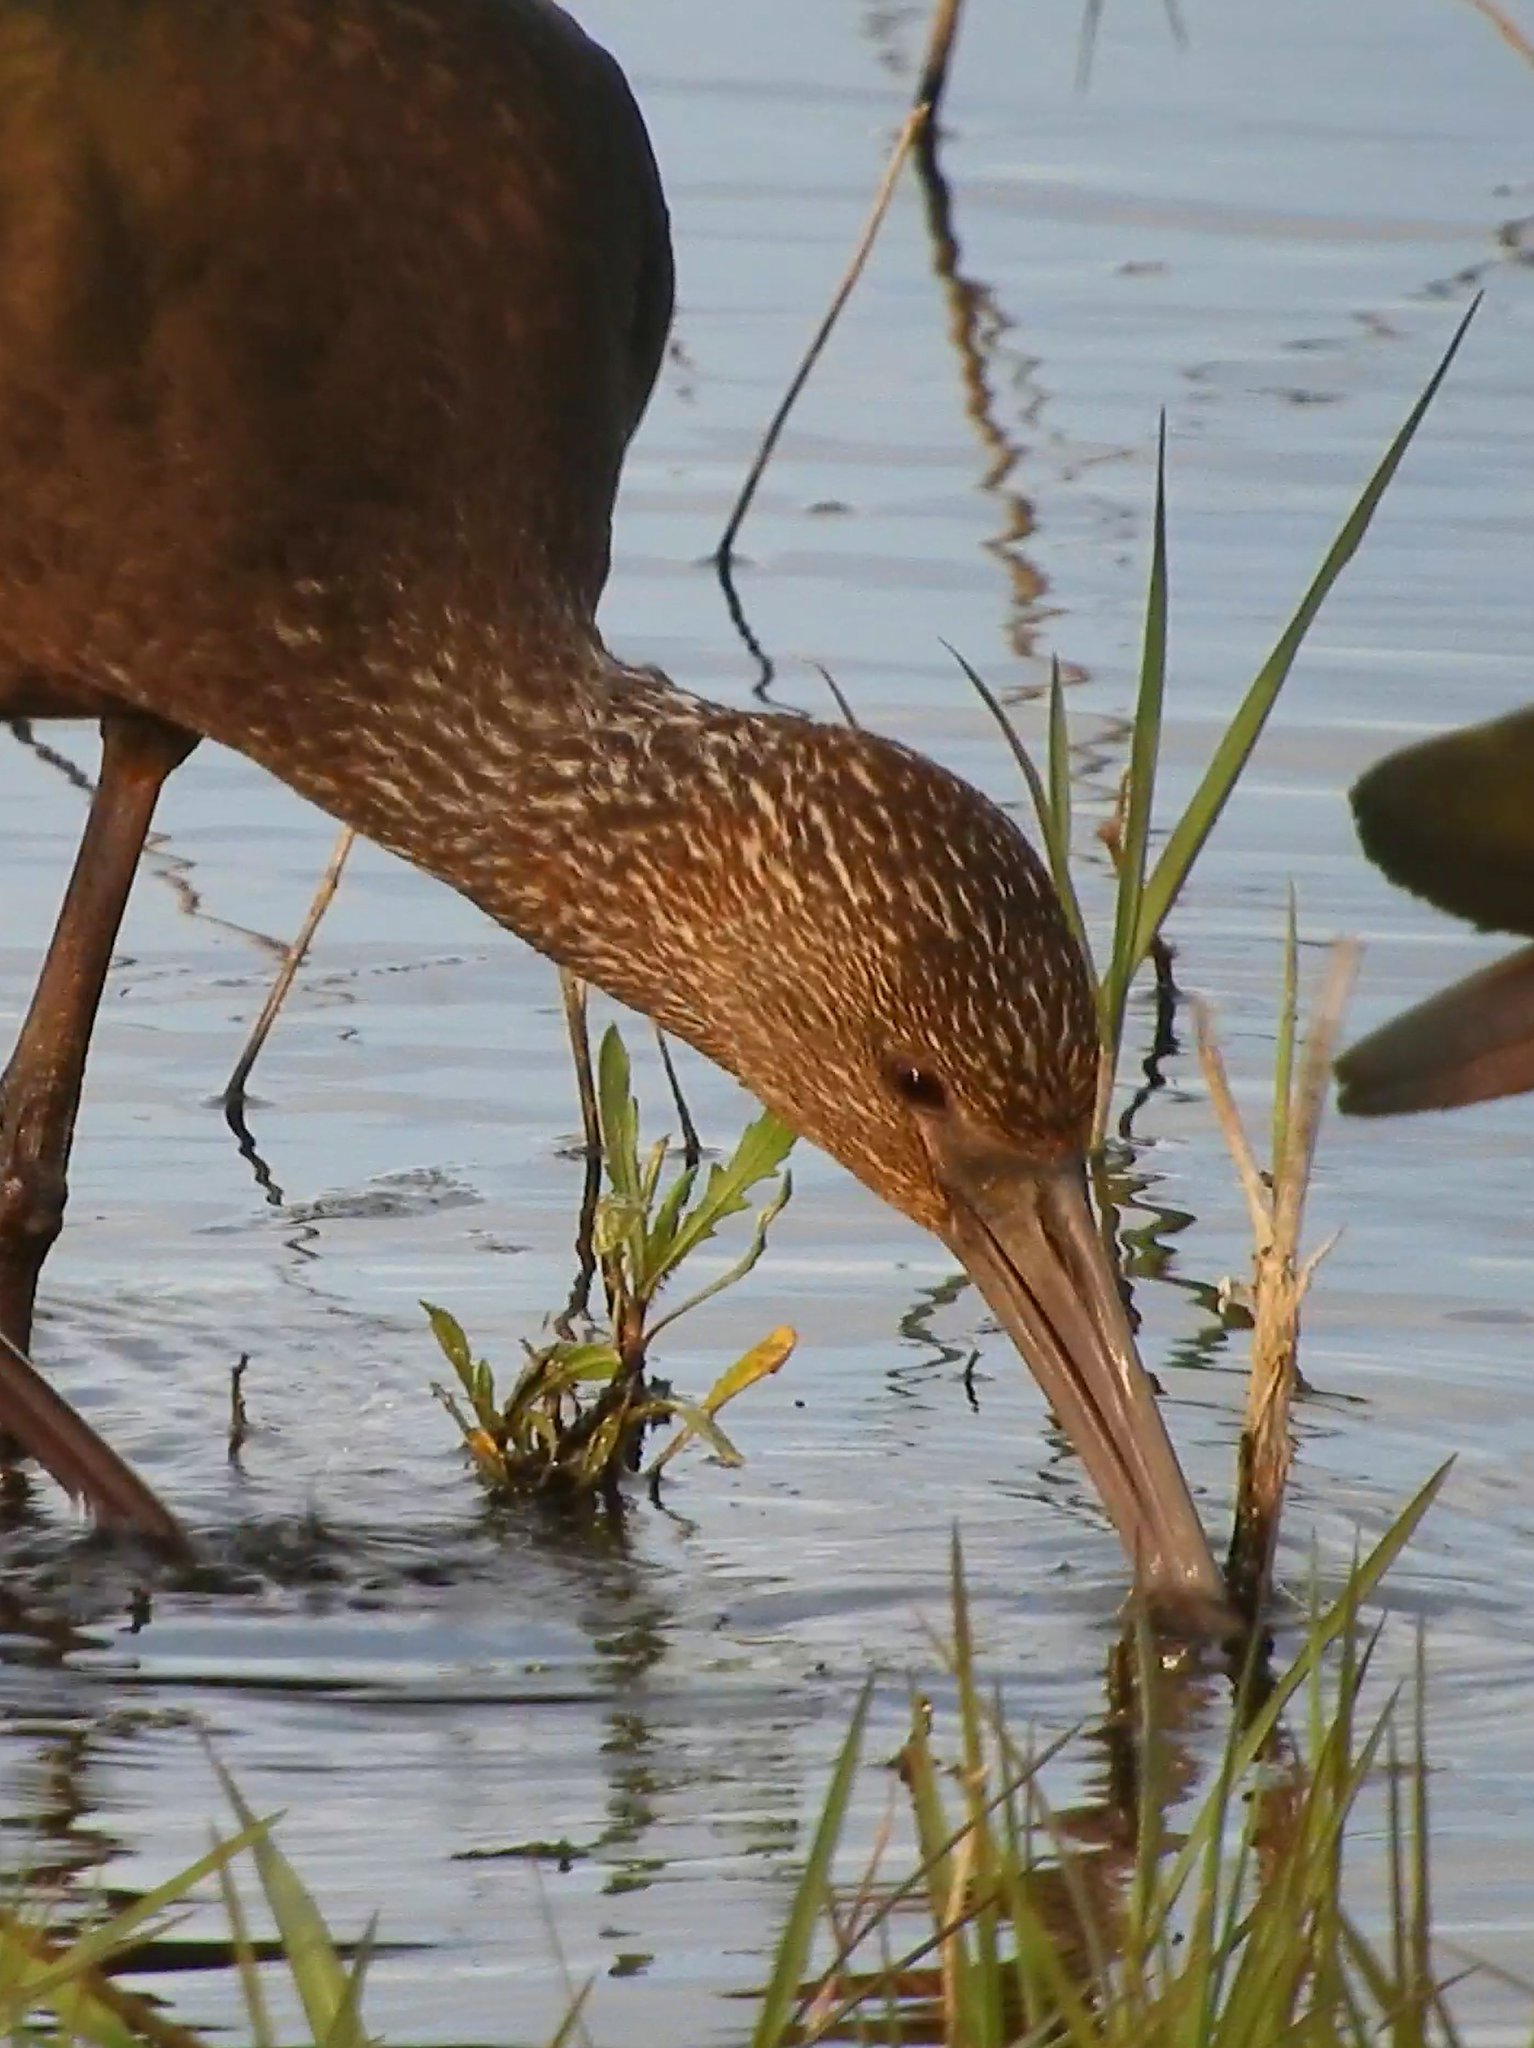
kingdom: Animalia
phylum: Chordata
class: Aves
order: Pelecaniformes
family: Threskiornithidae
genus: Plegadis
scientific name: Plegadis chihi
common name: White-faced ibis
